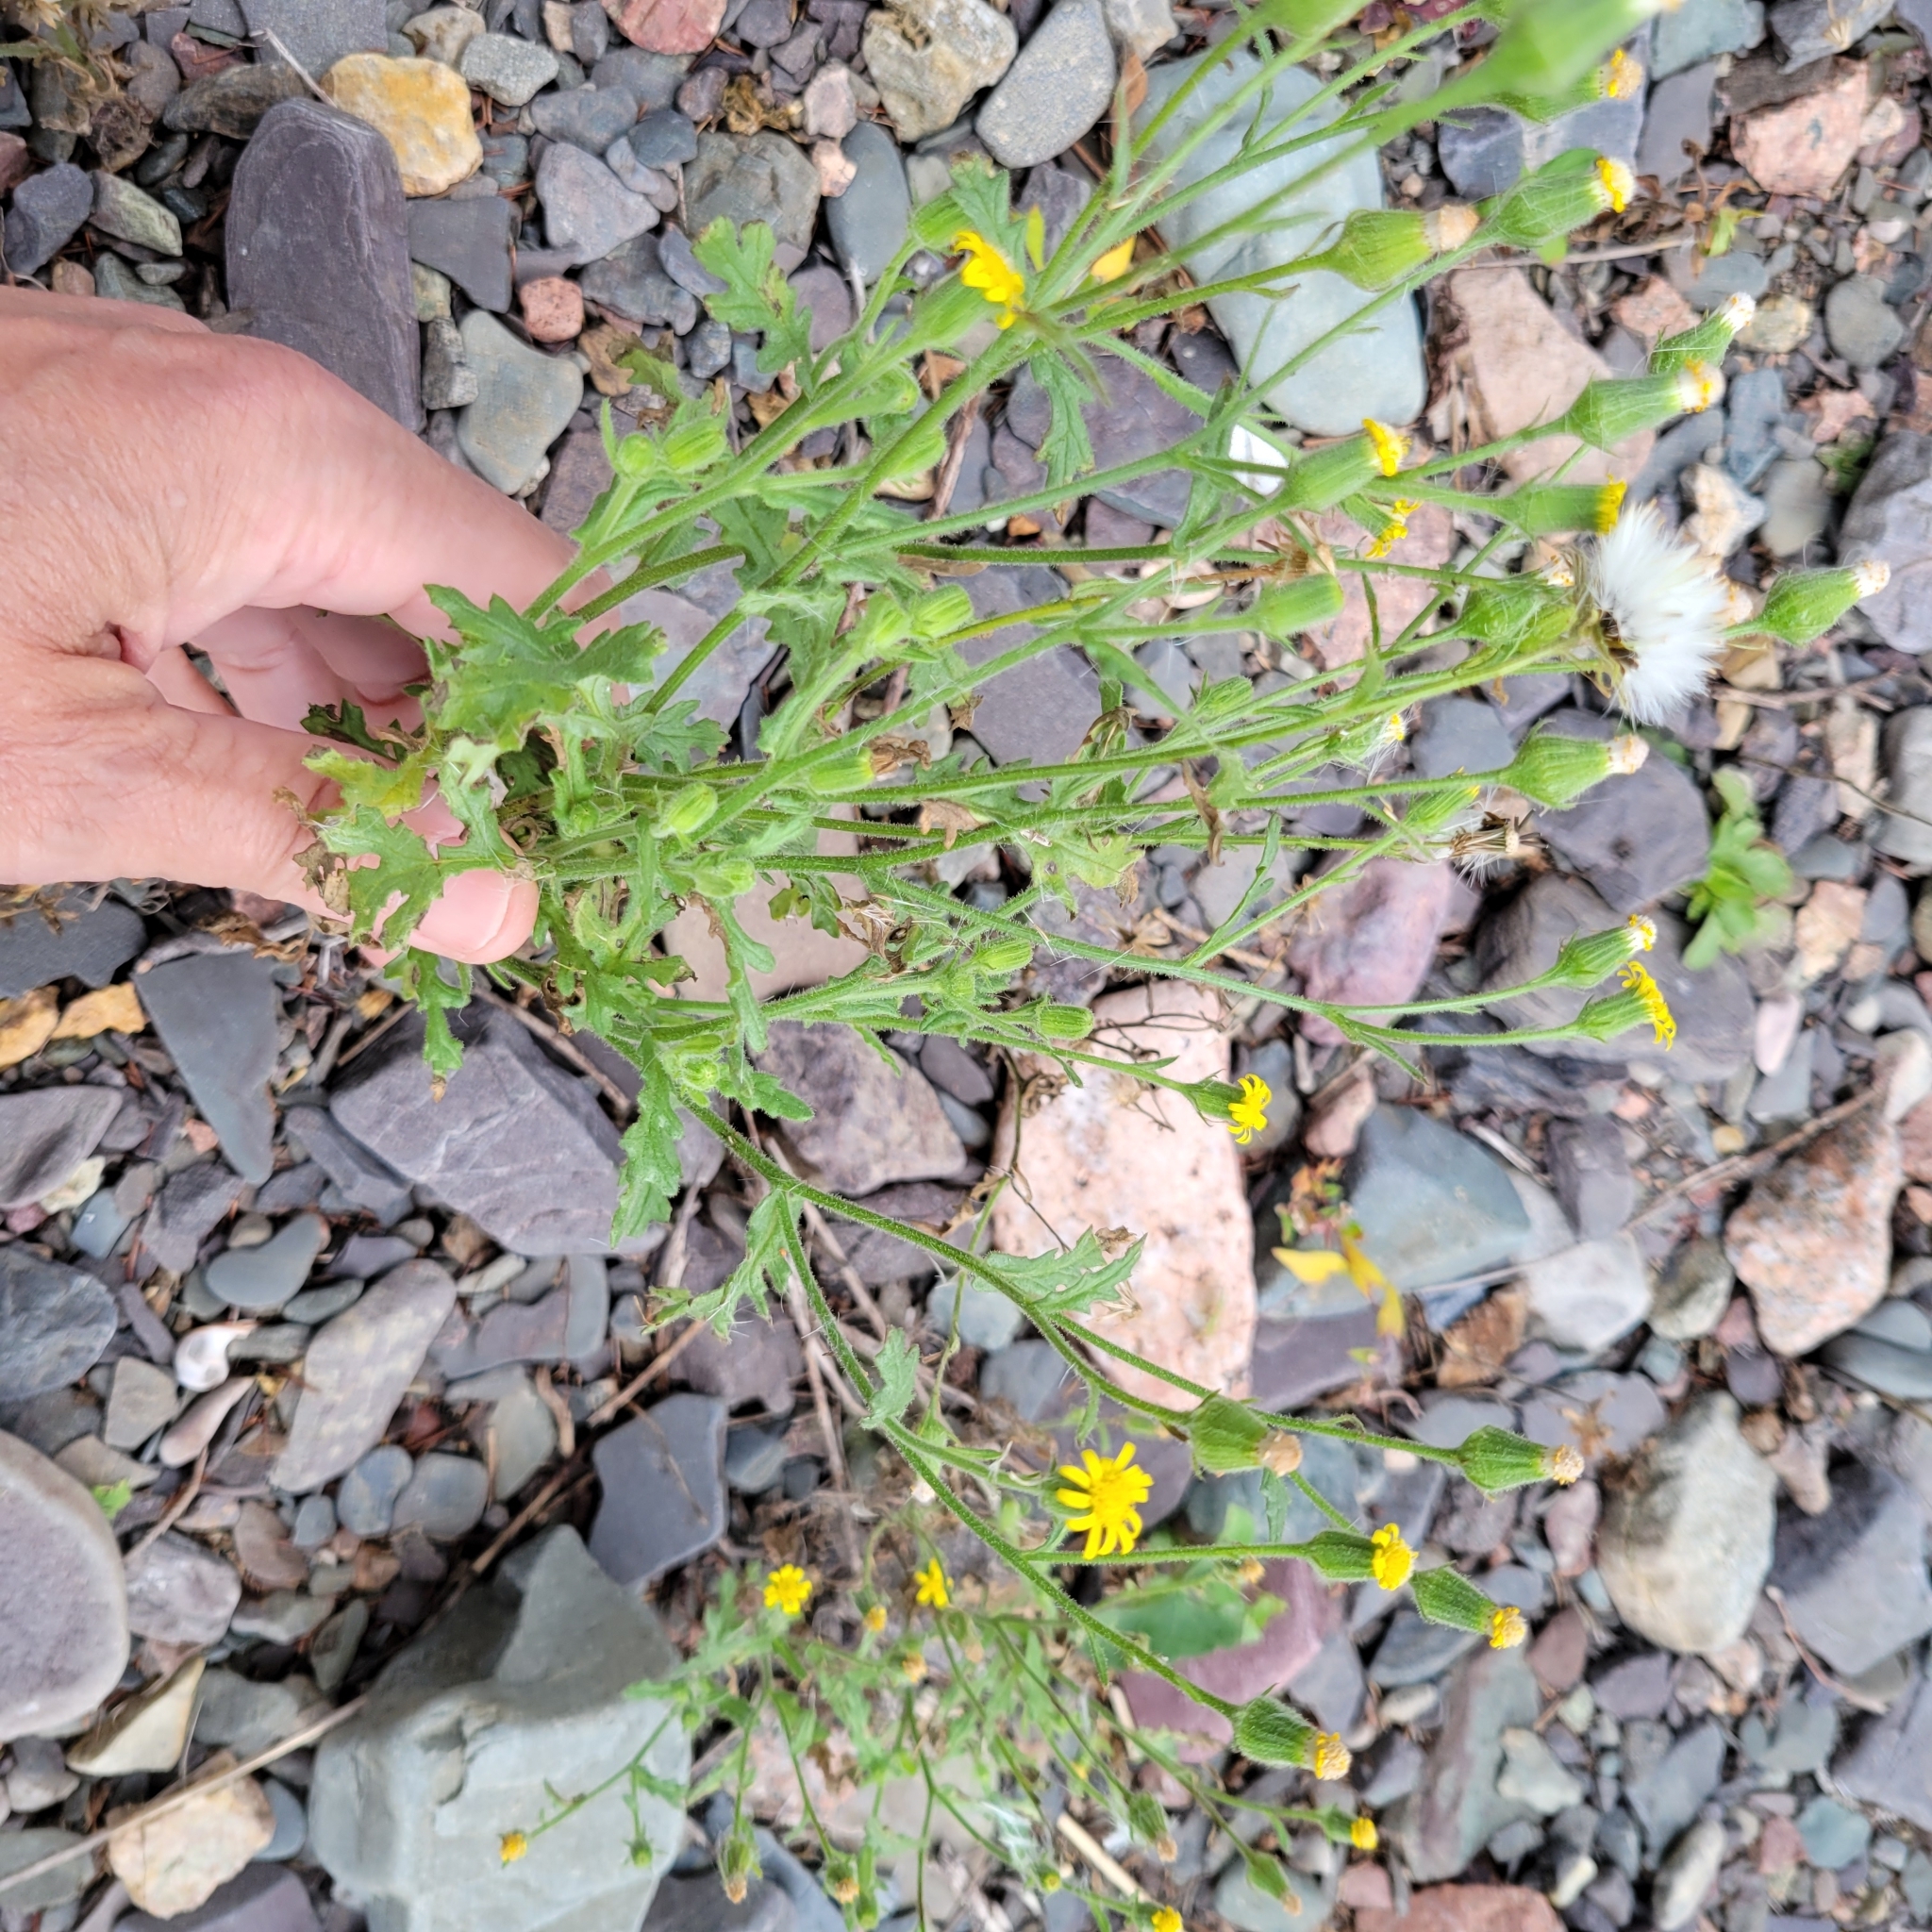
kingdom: Plantae
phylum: Tracheophyta
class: Magnoliopsida
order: Asterales
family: Asteraceae
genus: Senecio
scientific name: Senecio viscosus
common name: Sticky groundsel
